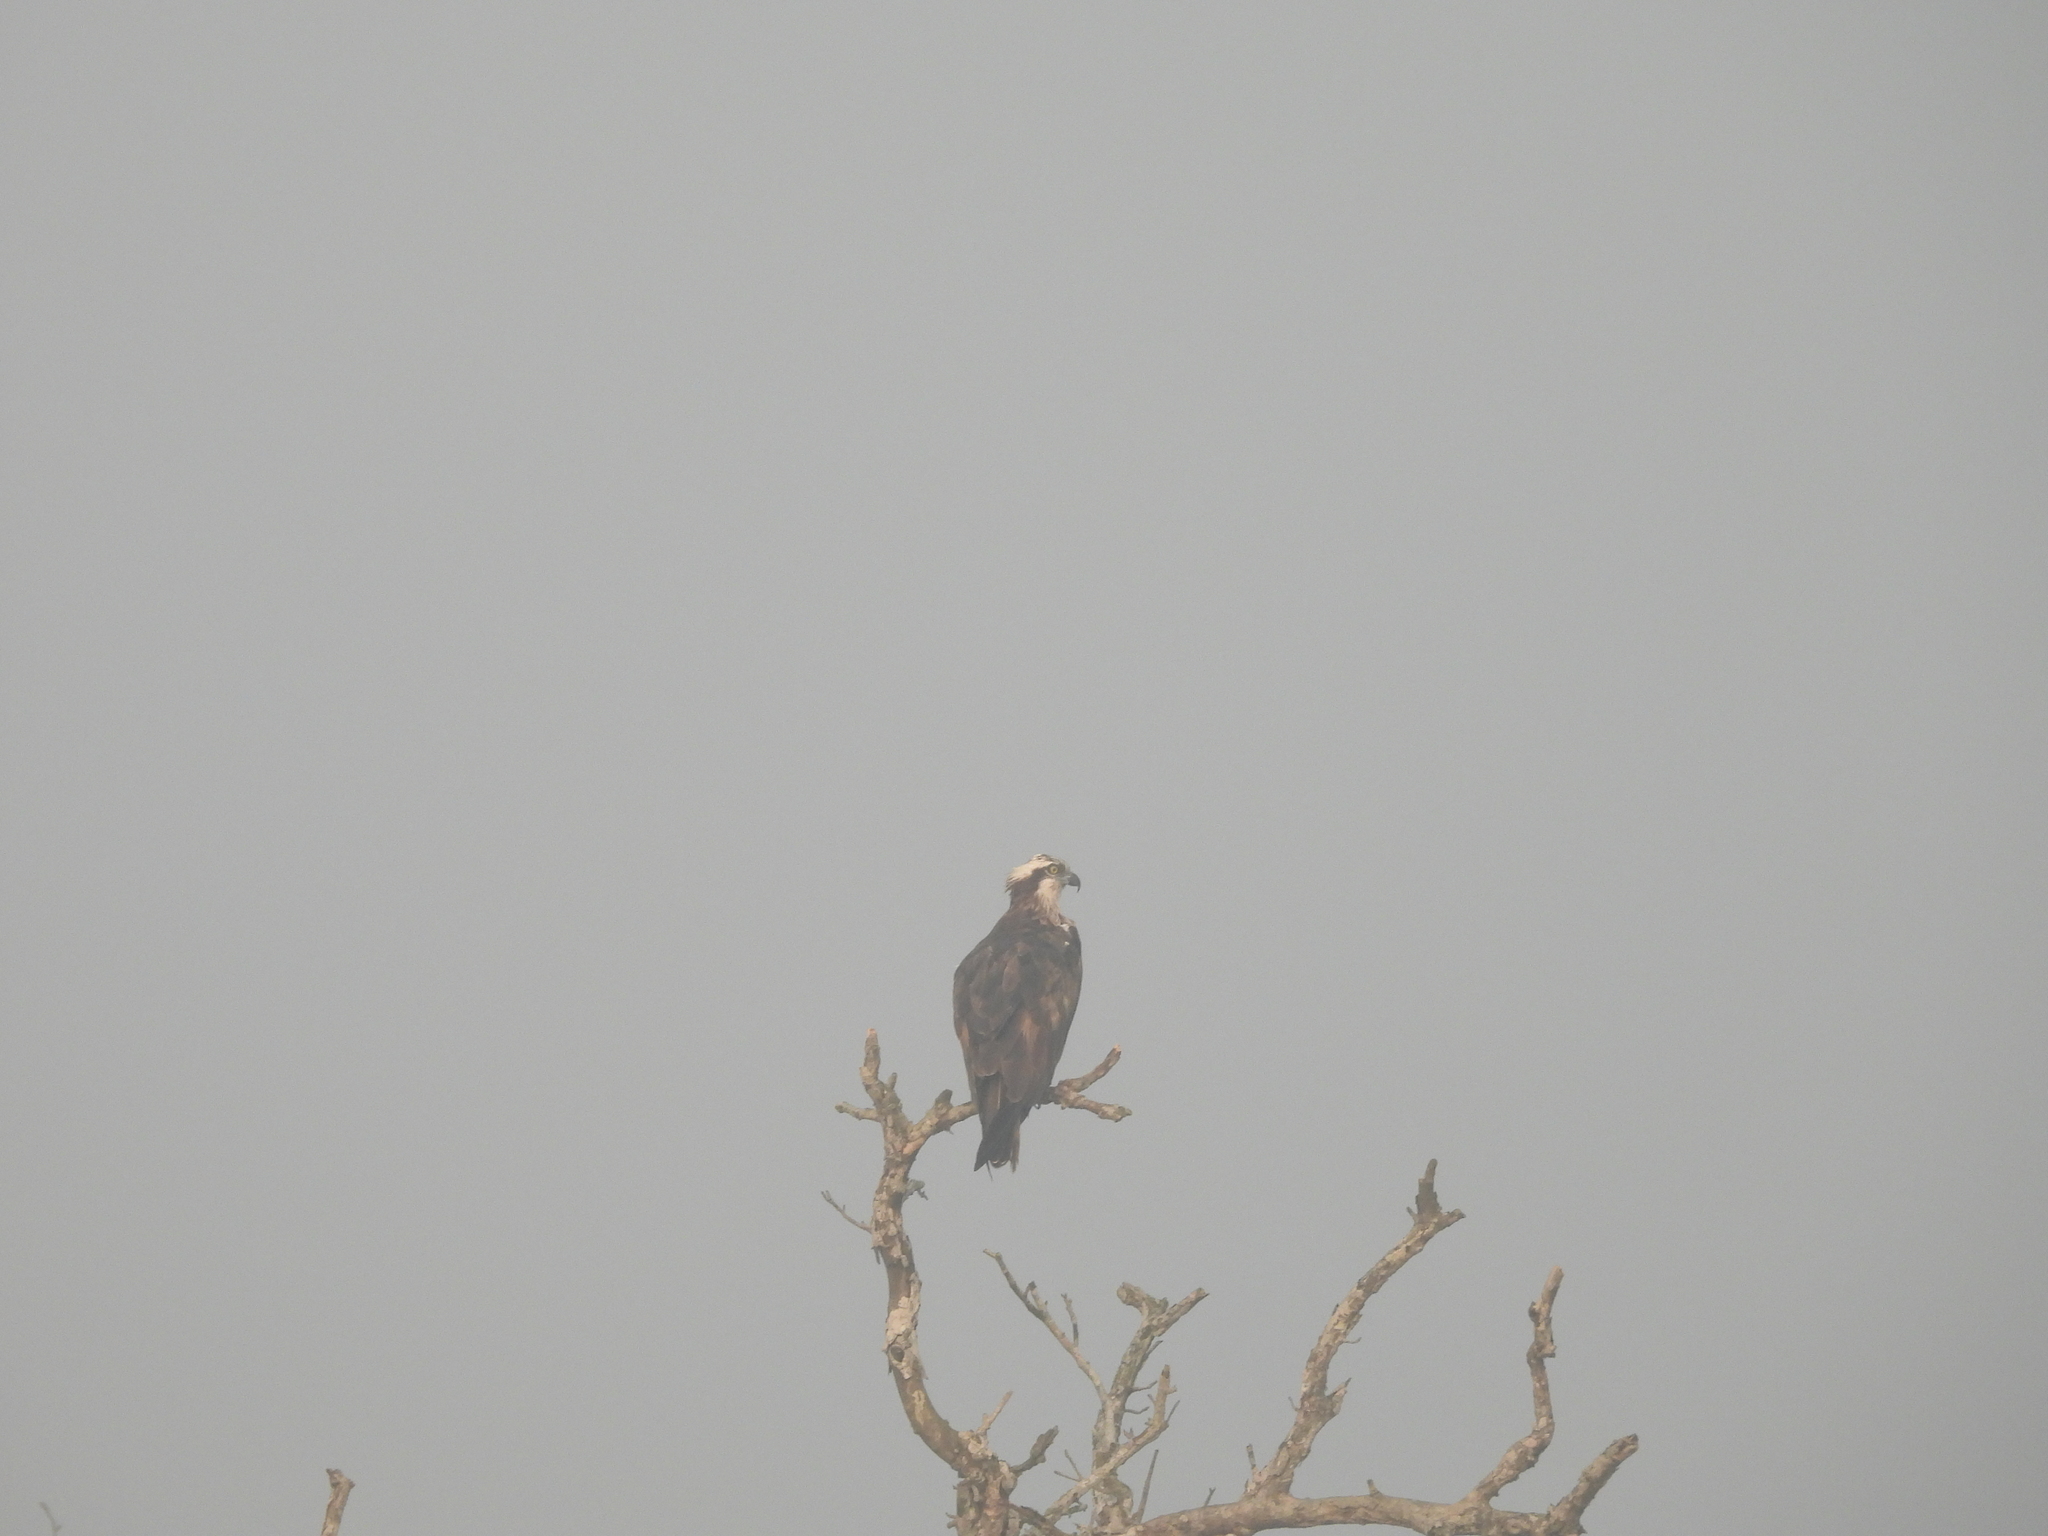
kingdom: Animalia
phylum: Chordata
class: Aves
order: Accipitriformes
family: Pandionidae
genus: Pandion
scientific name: Pandion haliaetus
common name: Osprey
